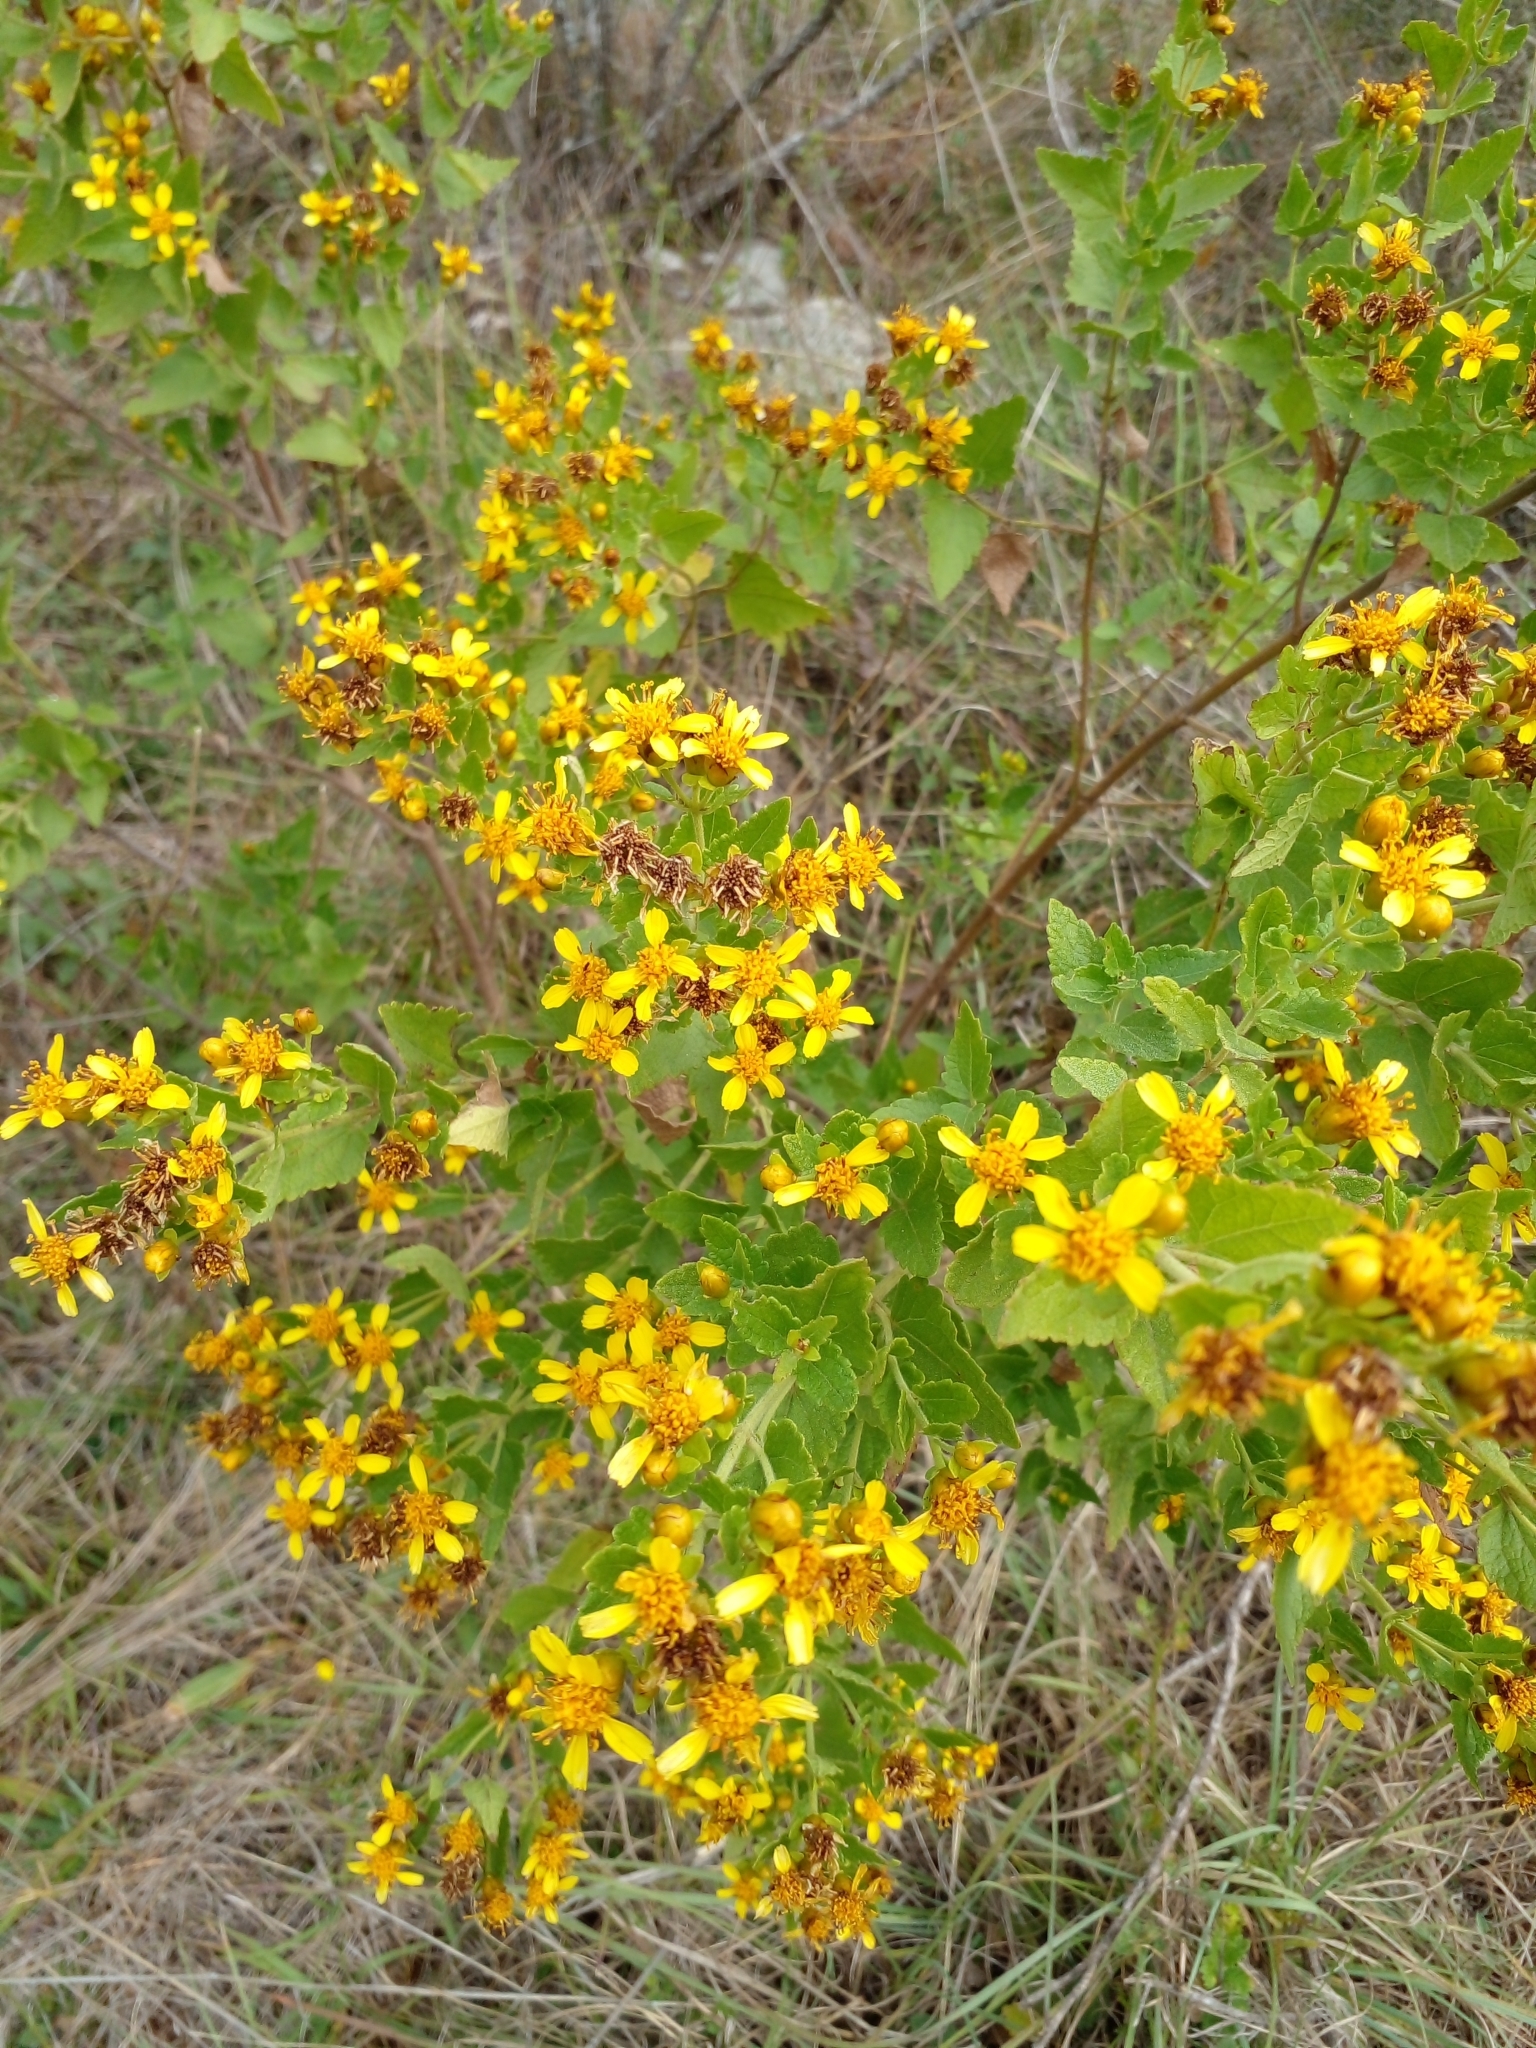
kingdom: Plantae
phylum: Tracheophyta
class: Magnoliopsida
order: Asterales
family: Asteraceae
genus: Calea
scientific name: Calea
